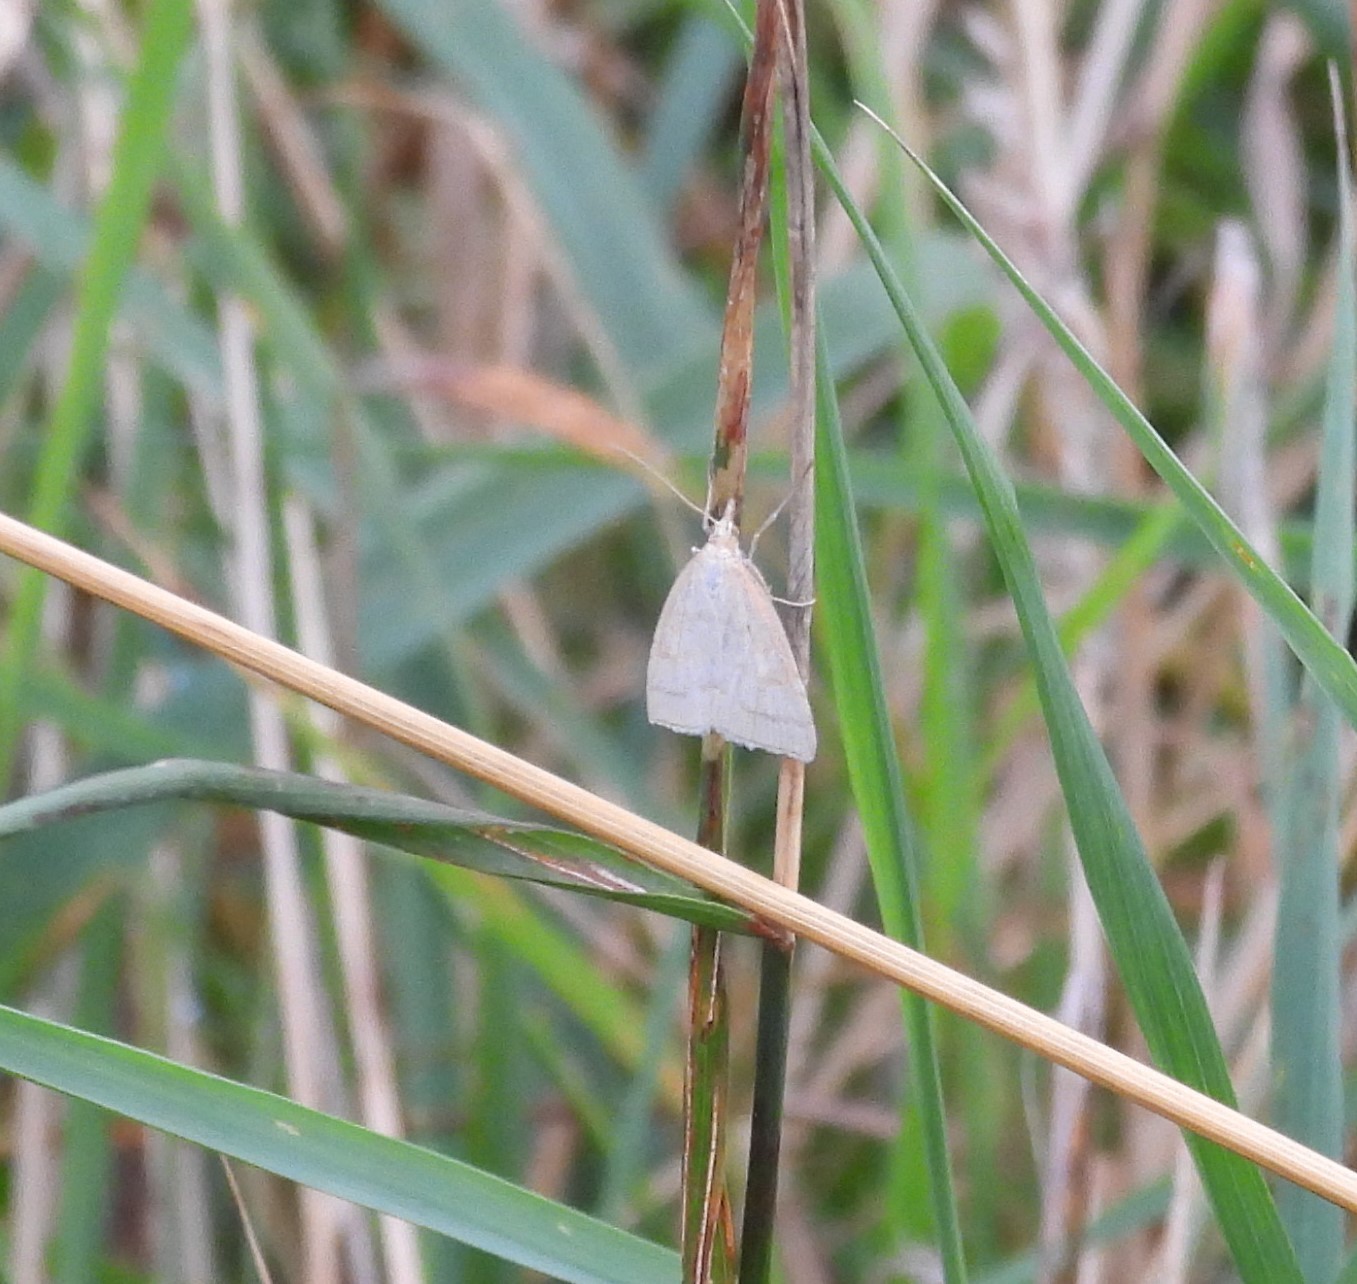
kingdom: Animalia
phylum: Arthropoda
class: Insecta
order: Lepidoptera
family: Crambidae
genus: Udea
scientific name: Udea lutealis
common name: Pale straw pearl
